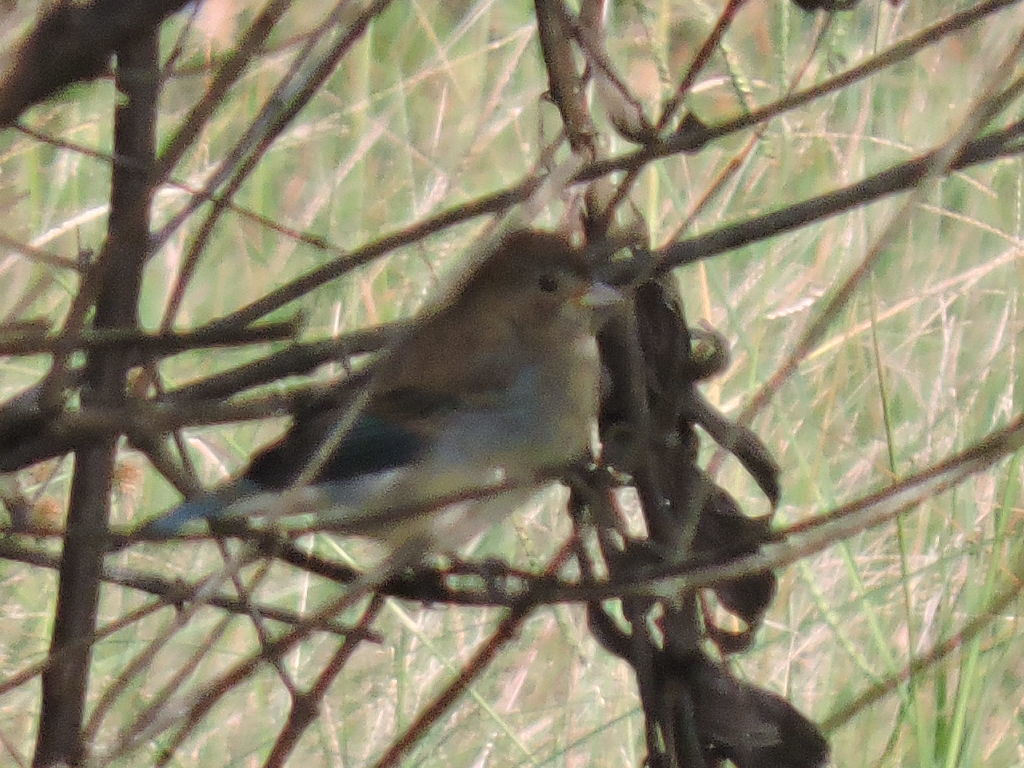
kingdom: Animalia
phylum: Chordata
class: Aves
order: Passeriformes
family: Cardinalidae
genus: Passerina
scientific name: Passerina cyanea
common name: Indigo bunting
